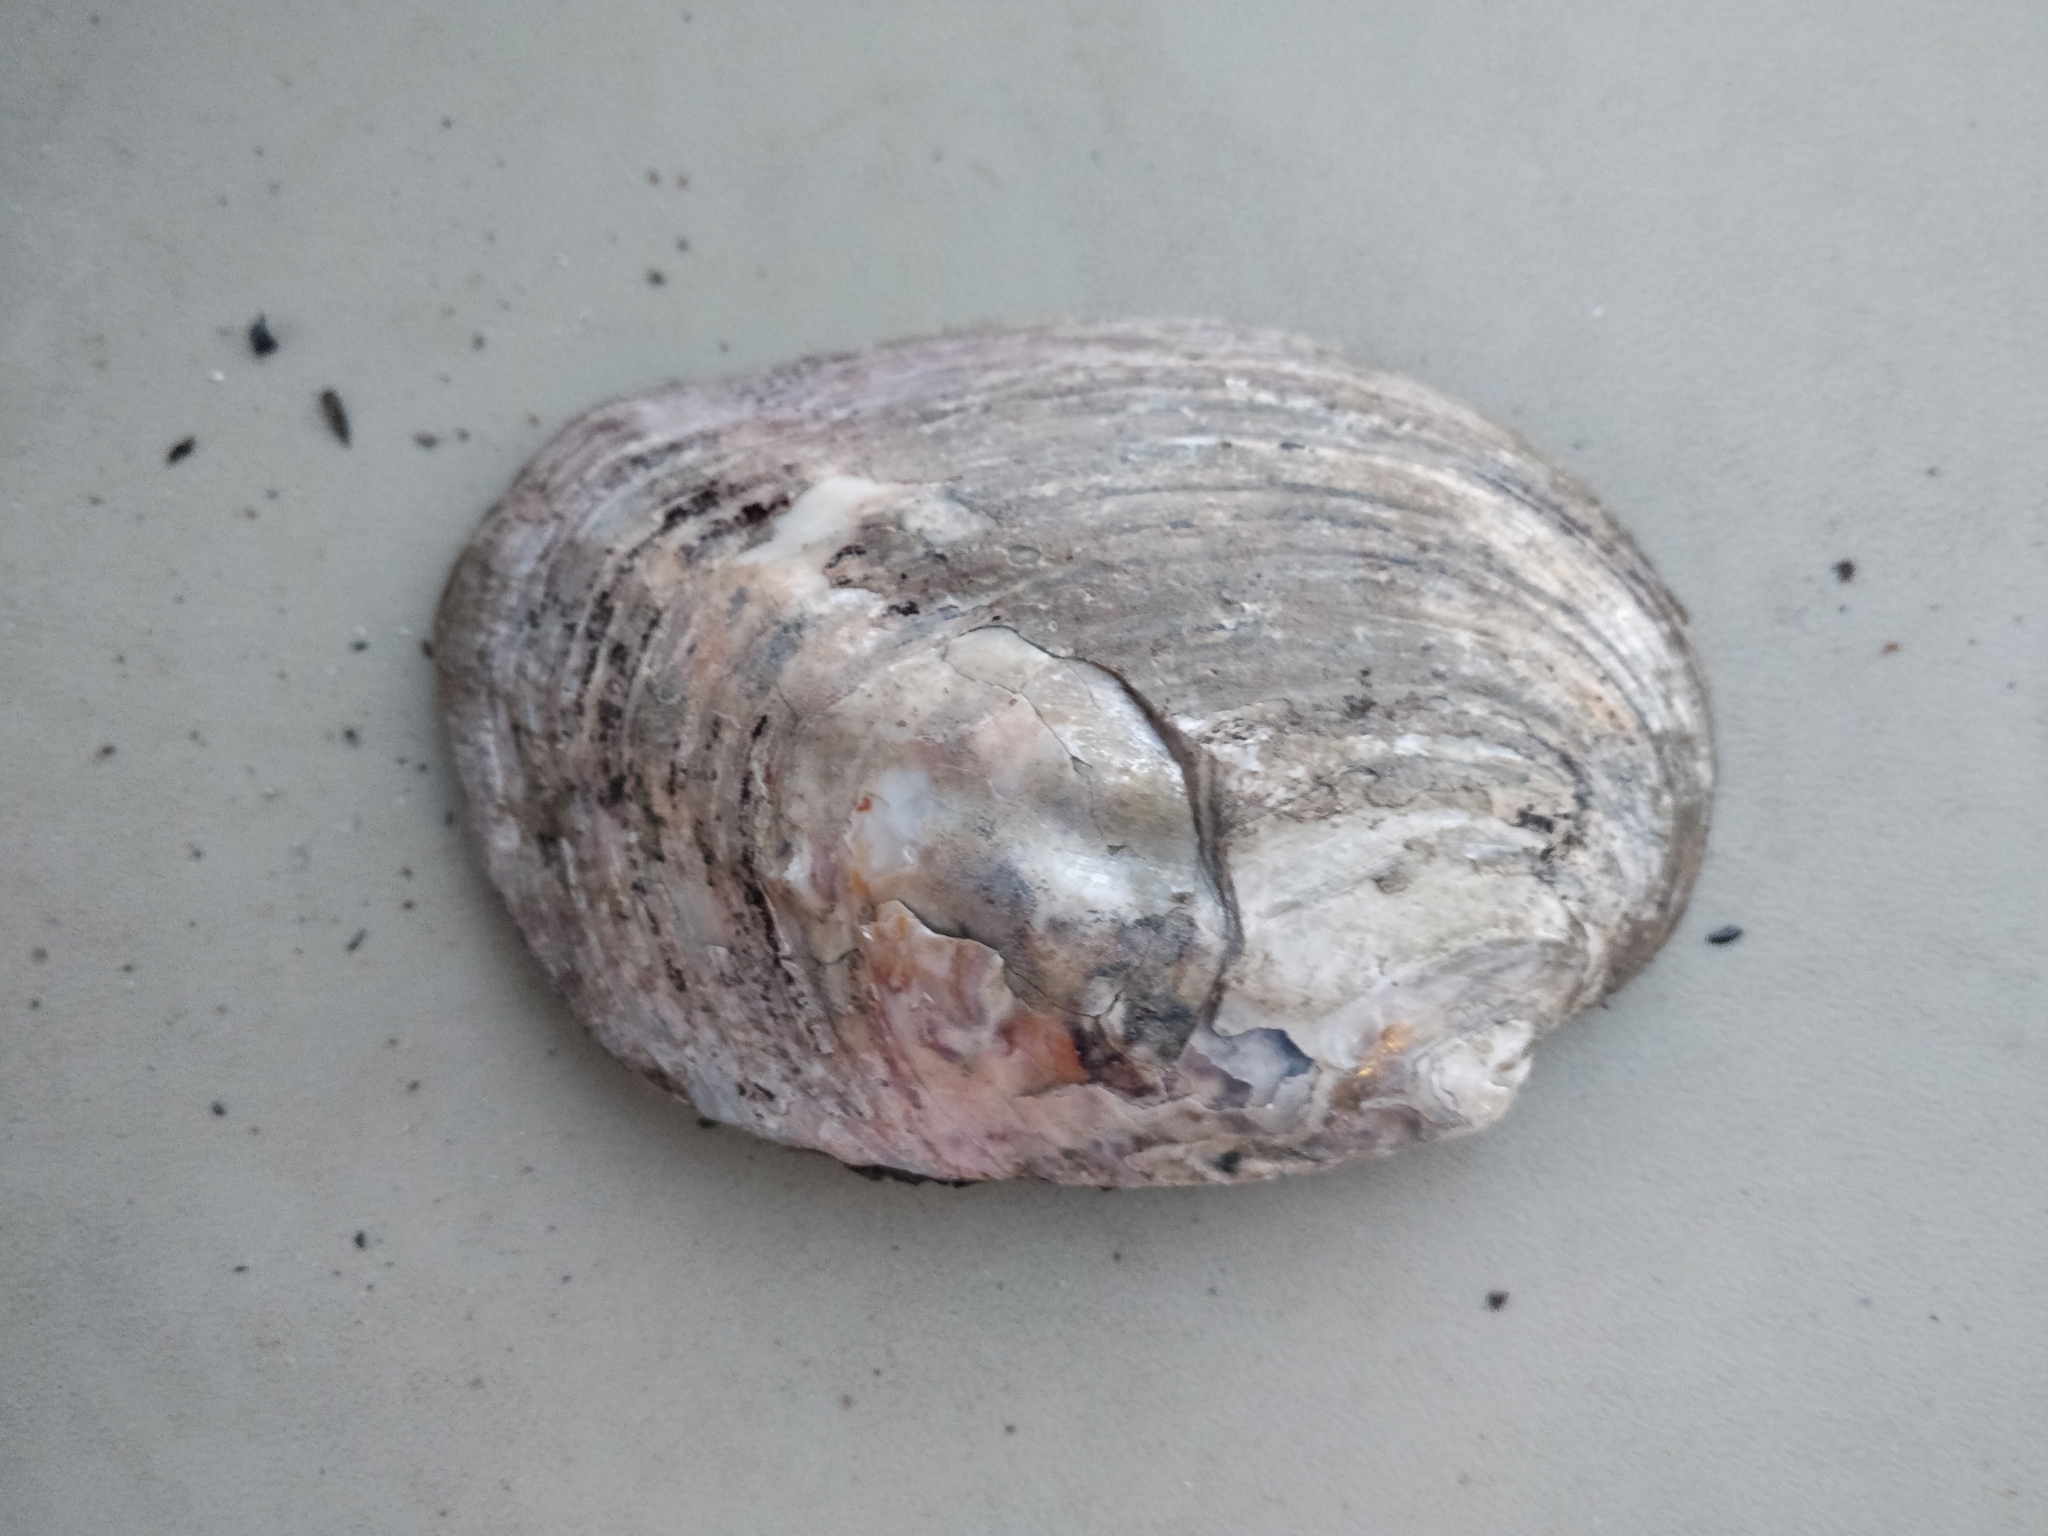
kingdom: Animalia
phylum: Mollusca
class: Bivalvia
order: Unionida
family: Unionidae
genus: Amblema
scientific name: Amblema plicata
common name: Threeridge
